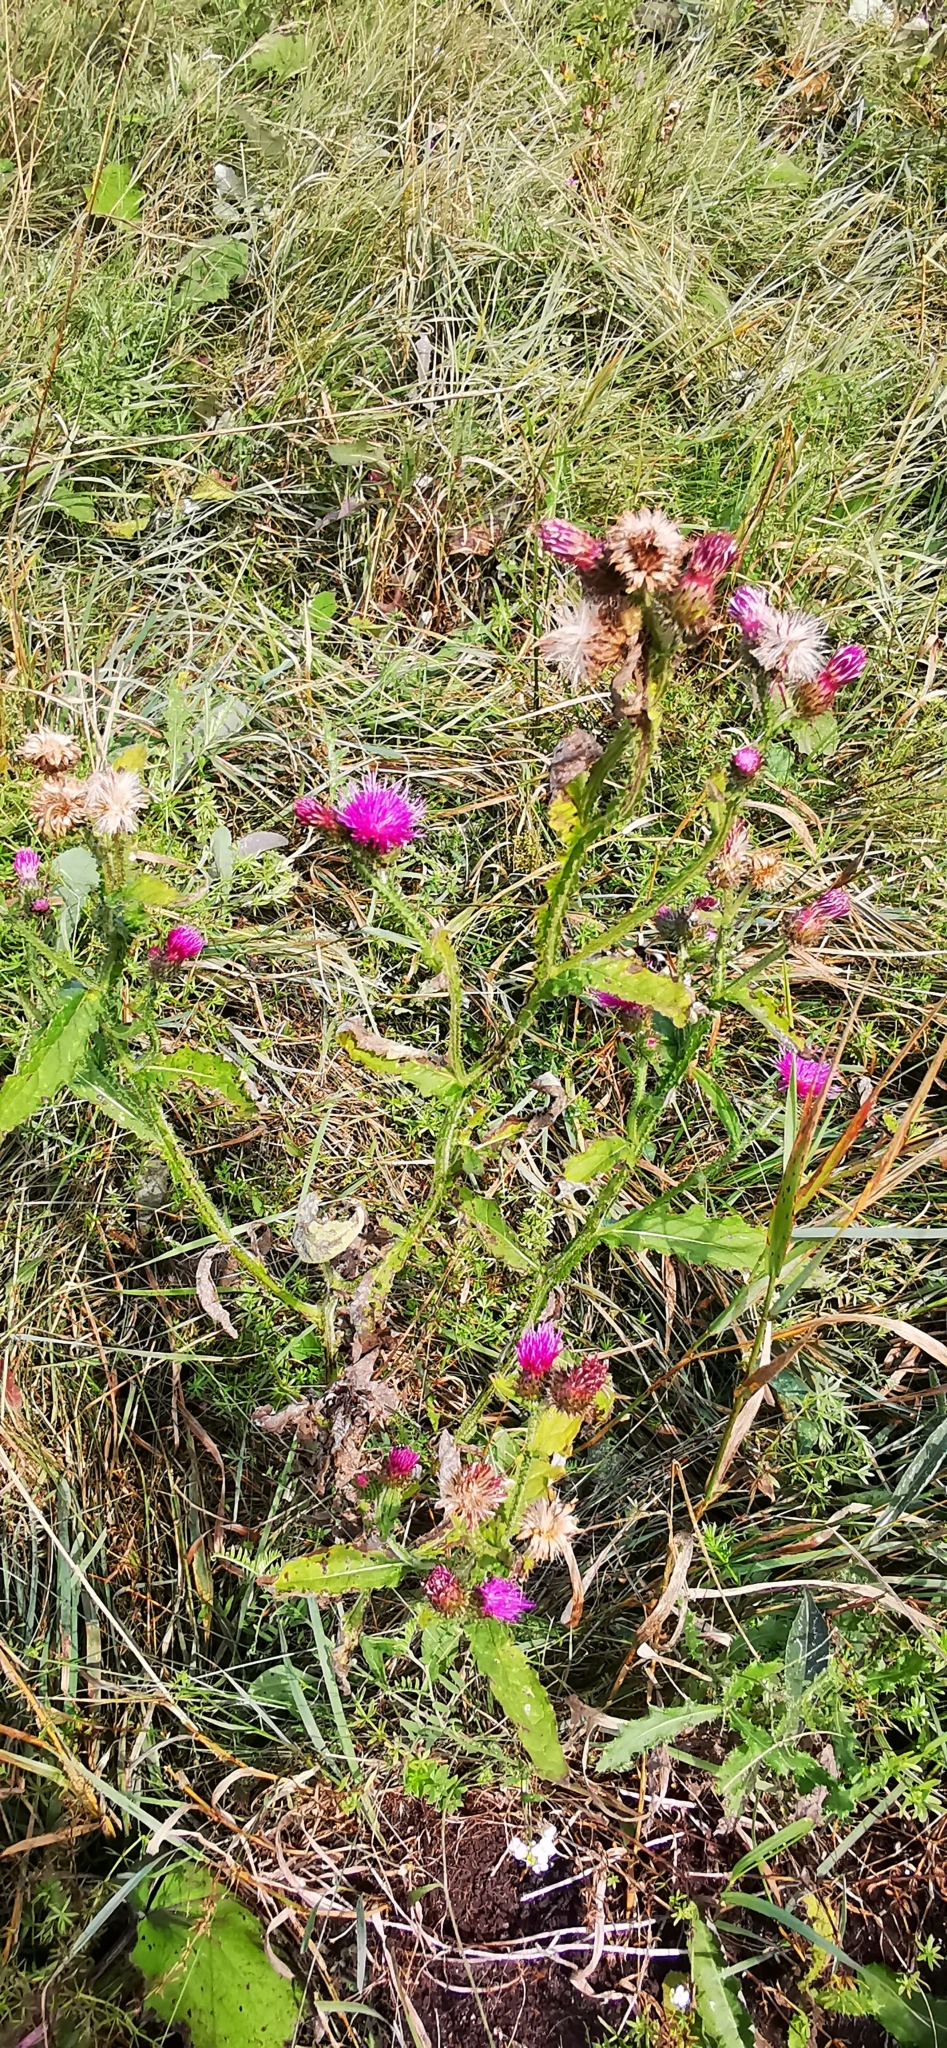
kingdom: Plantae
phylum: Tracheophyta
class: Magnoliopsida
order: Asterales
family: Asteraceae
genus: Carduus
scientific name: Carduus crispus
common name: Welted thistle
